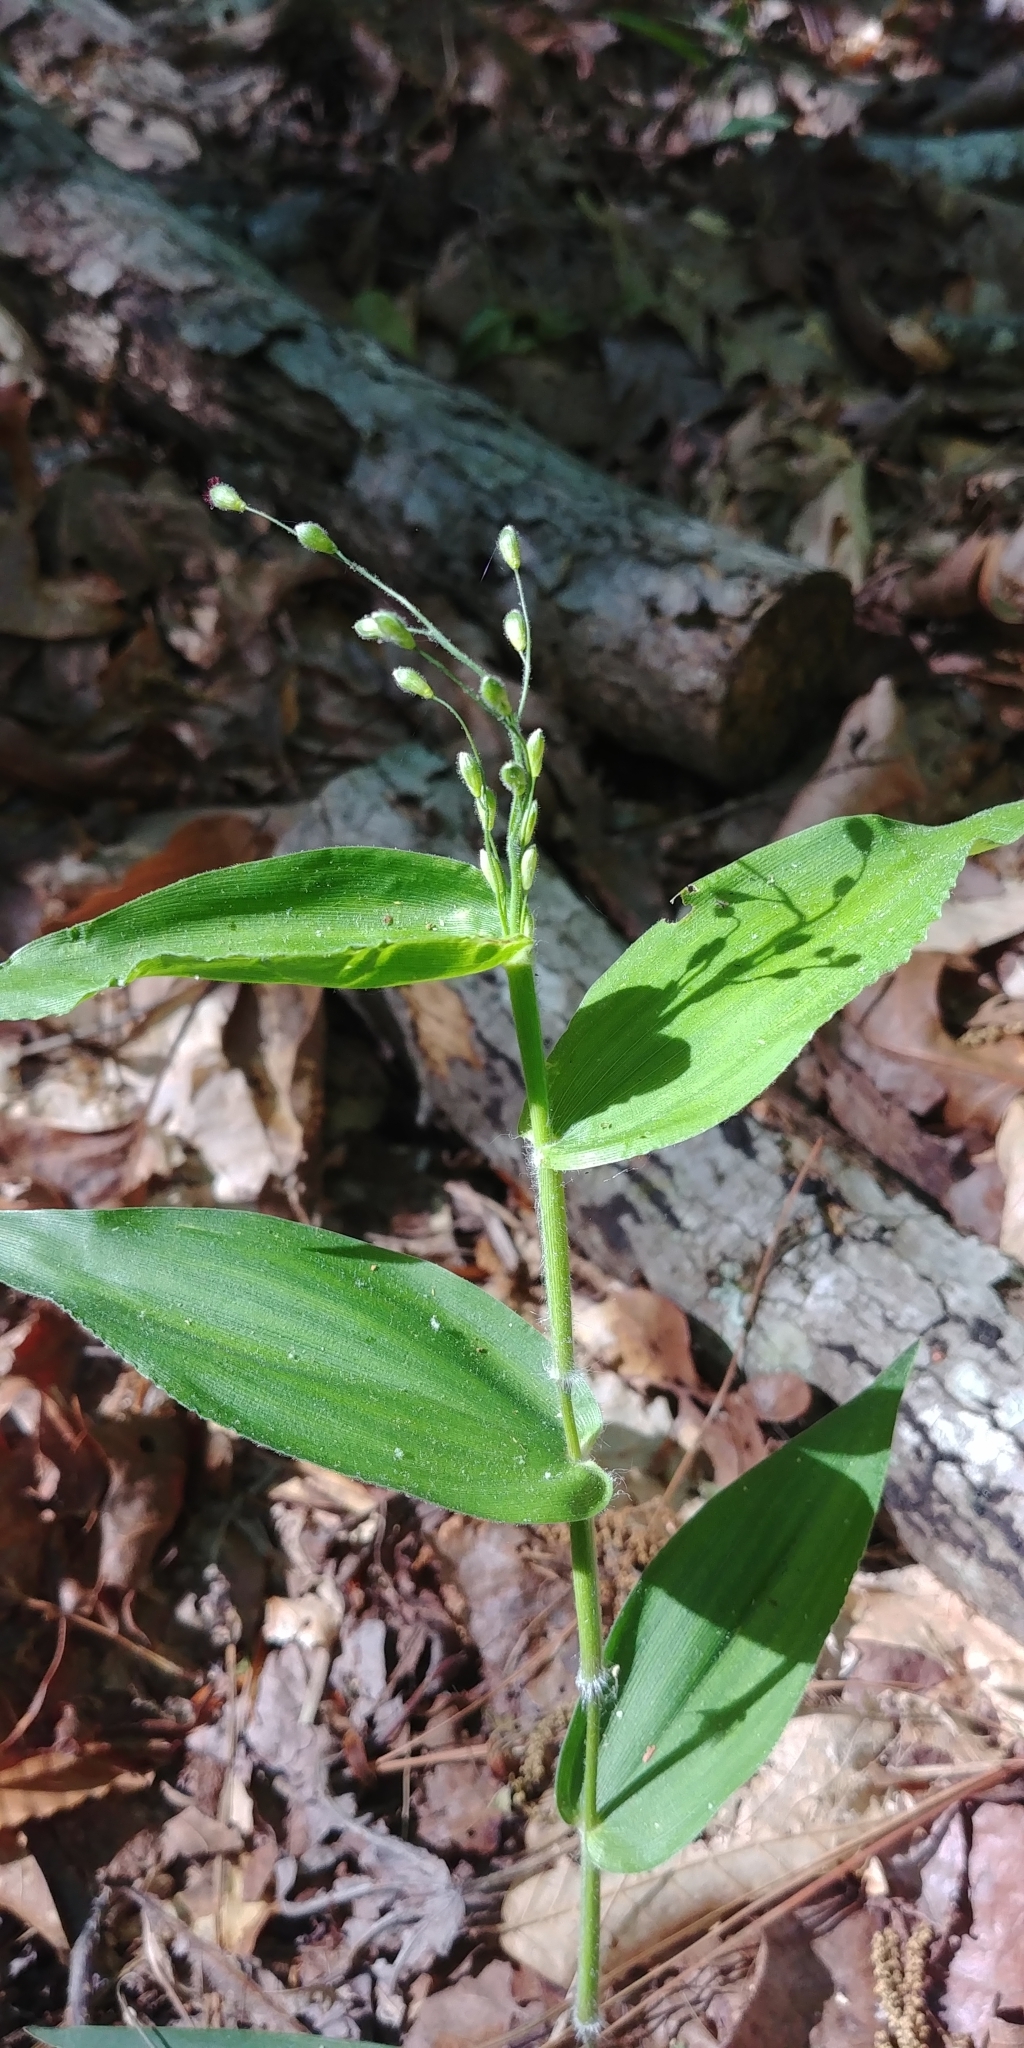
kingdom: Plantae
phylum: Tracheophyta
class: Liliopsida
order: Poales
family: Poaceae
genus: Dichanthelium
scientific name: Dichanthelium boscii
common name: Bosc's panic grass
